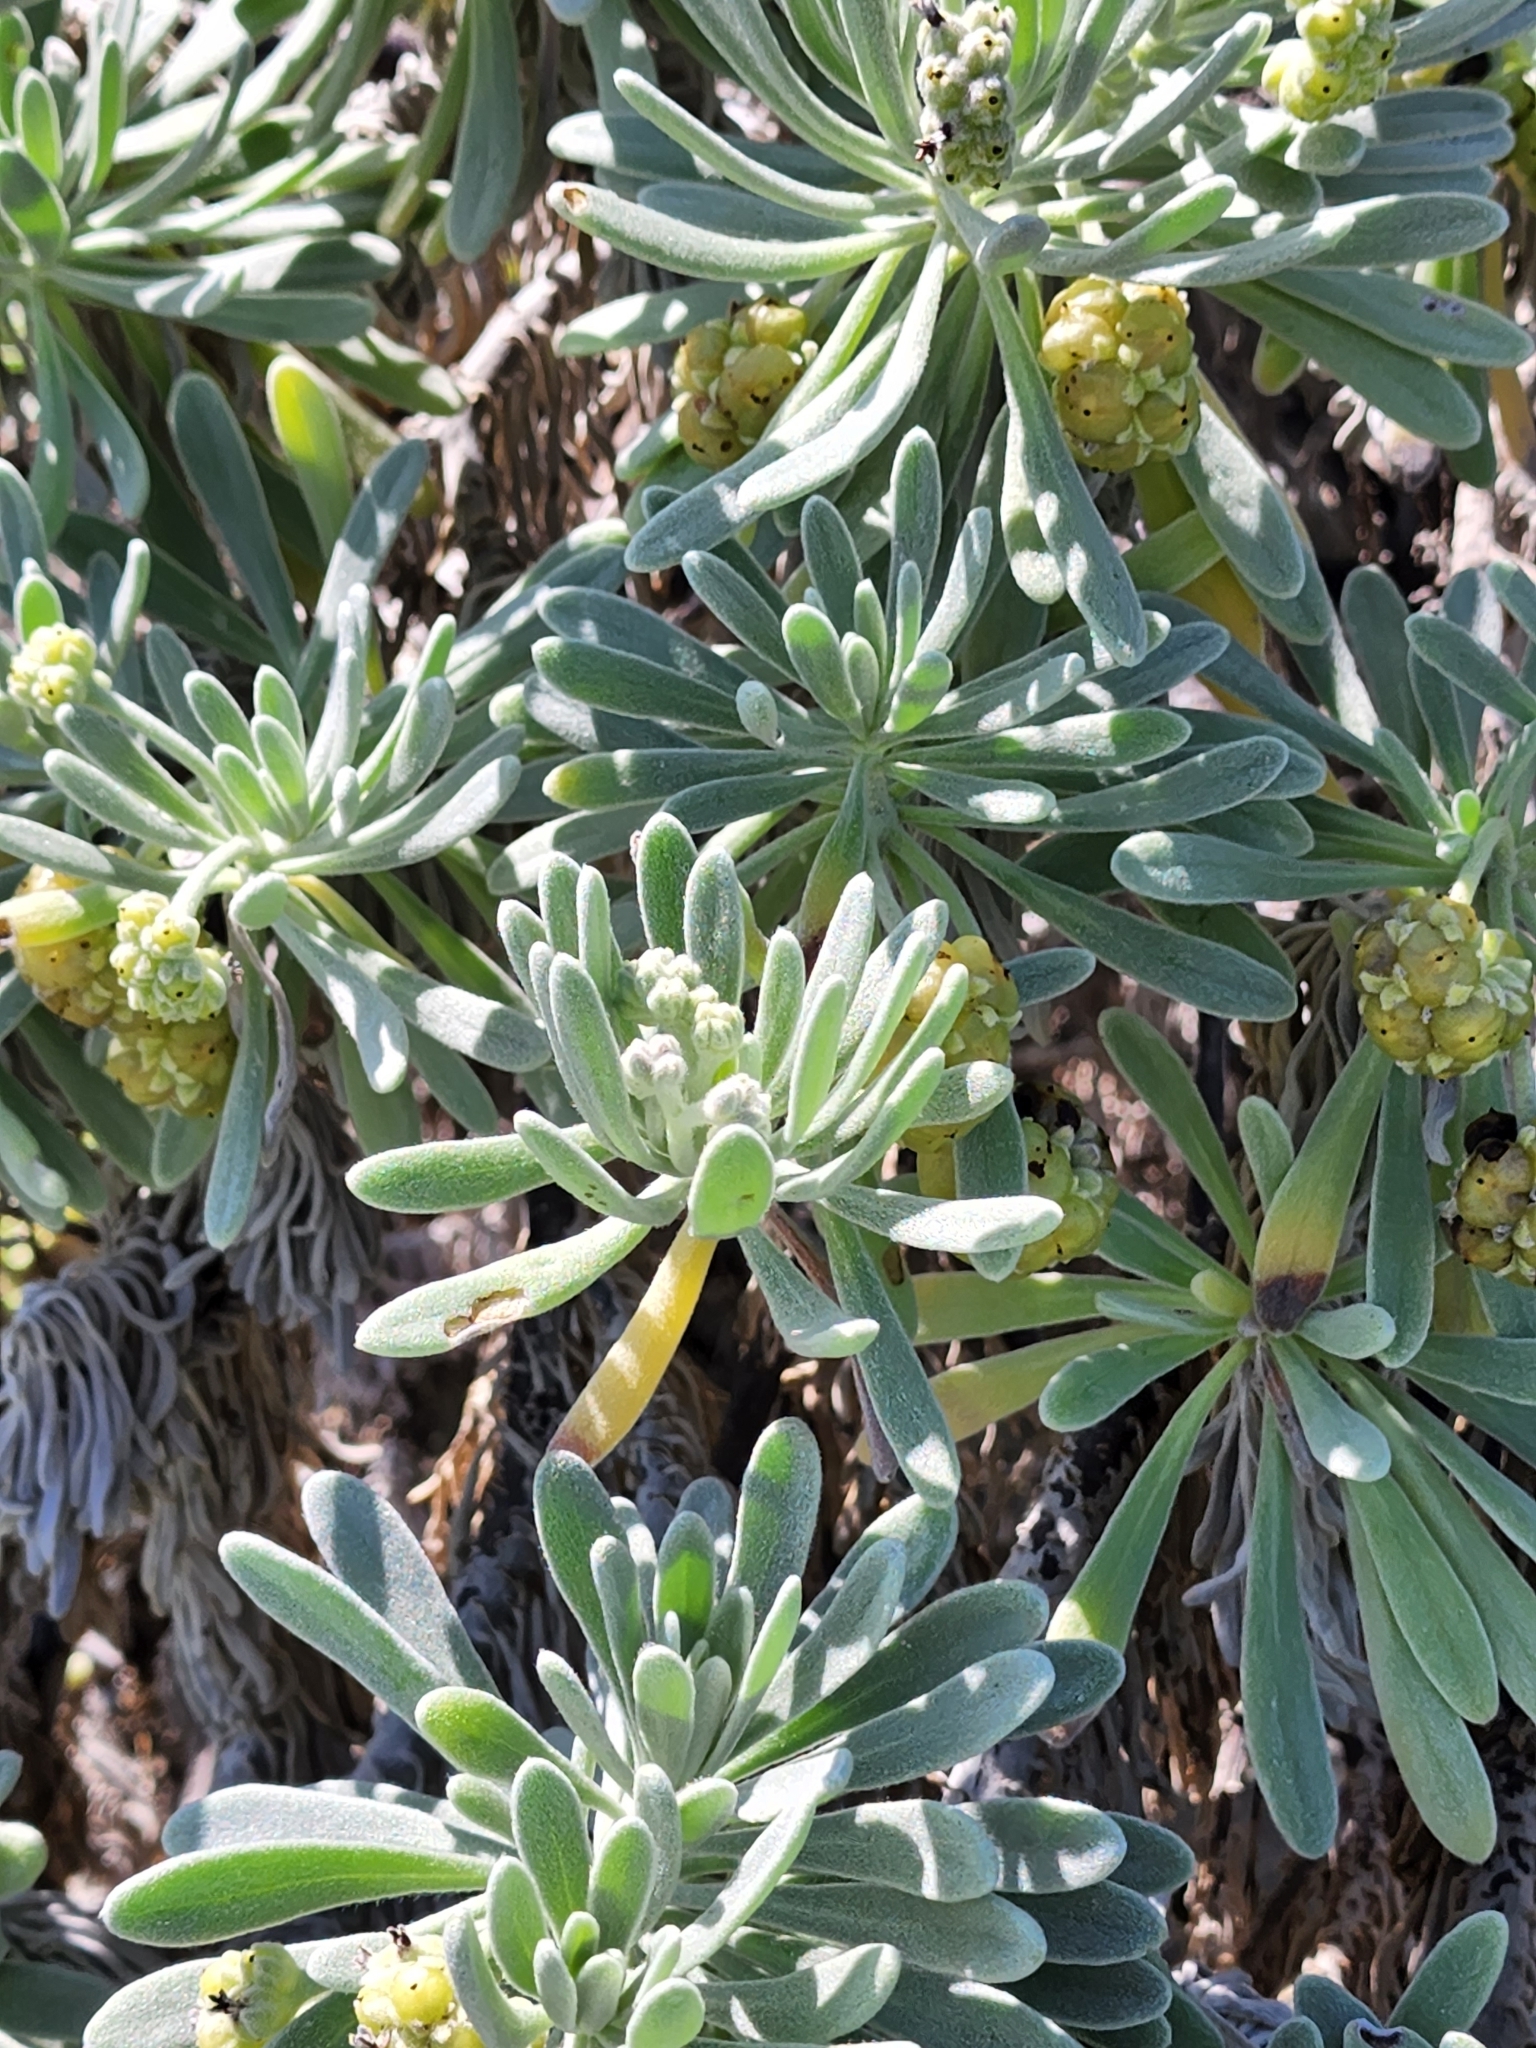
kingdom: Plantae
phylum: Tracheophyta
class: Magnoliopsida
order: Boraginales
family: Heliotropiaceae
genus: Tournefortia
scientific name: Tournefortia gnaphalodes
